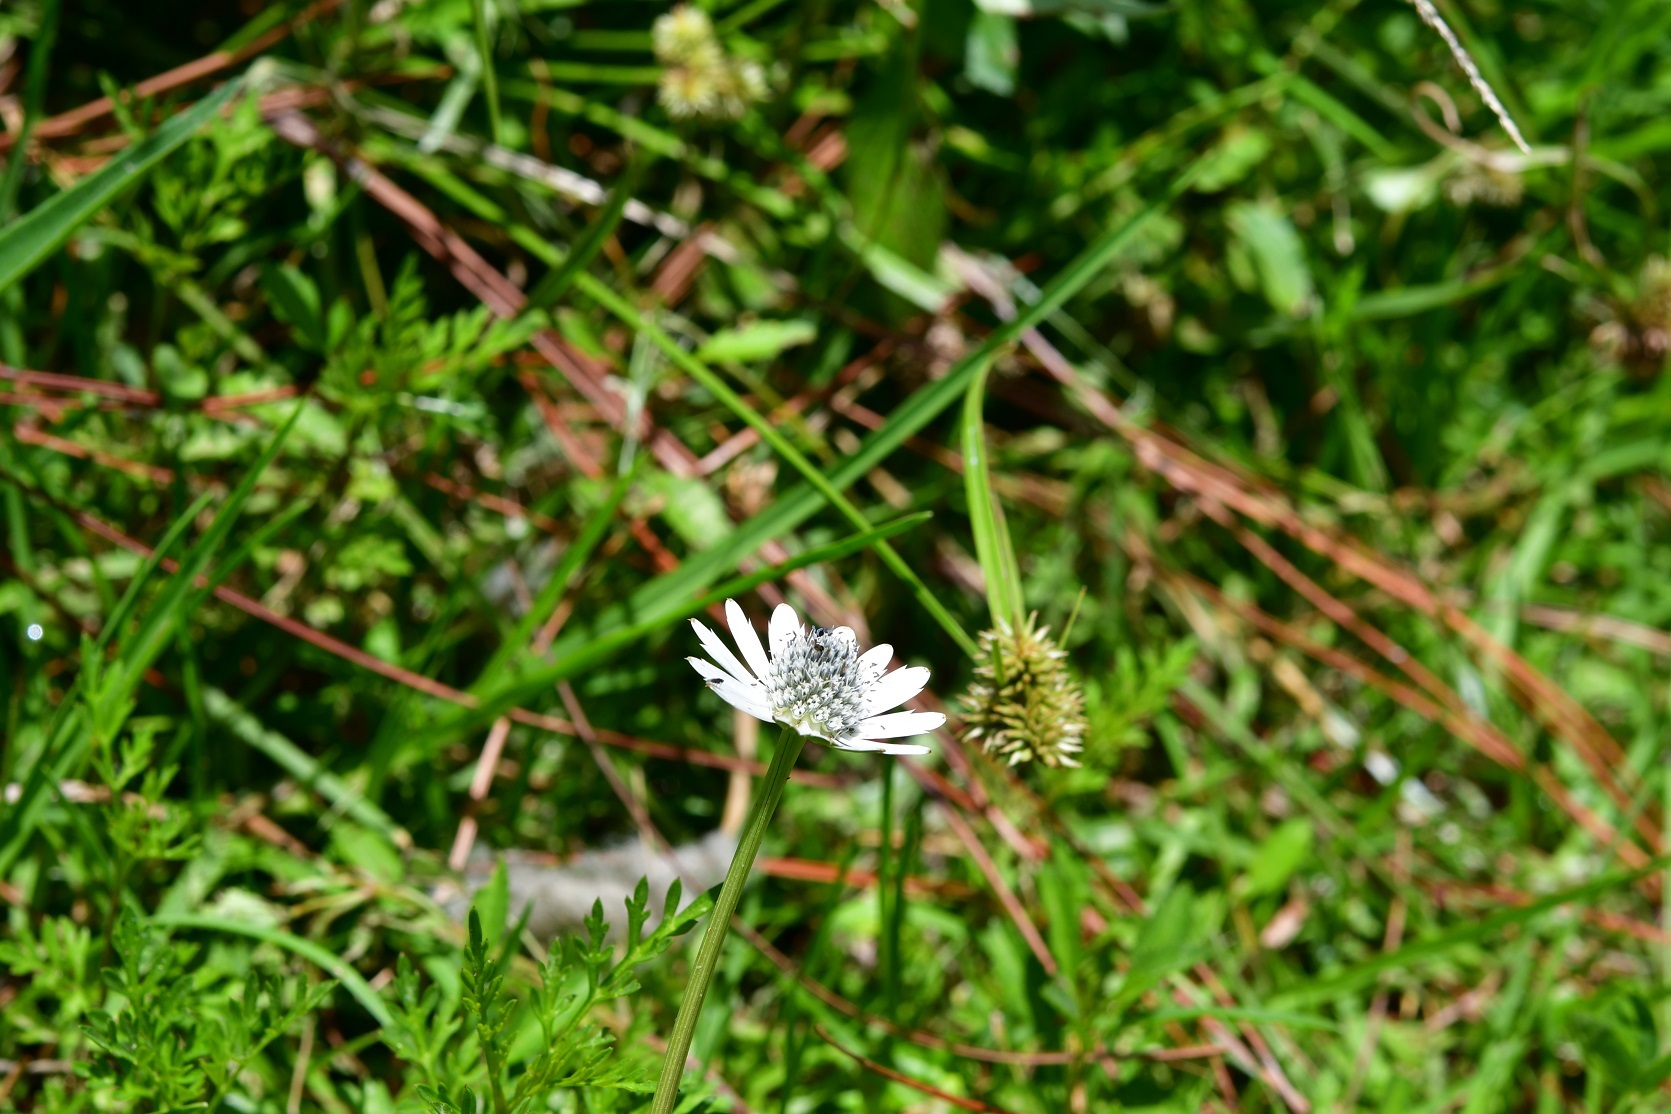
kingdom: Plantae
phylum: Tracheophyta
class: Magnoliopsida
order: Apiales
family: Apiaceae
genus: Eryngium
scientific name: Eryngium scaposum
